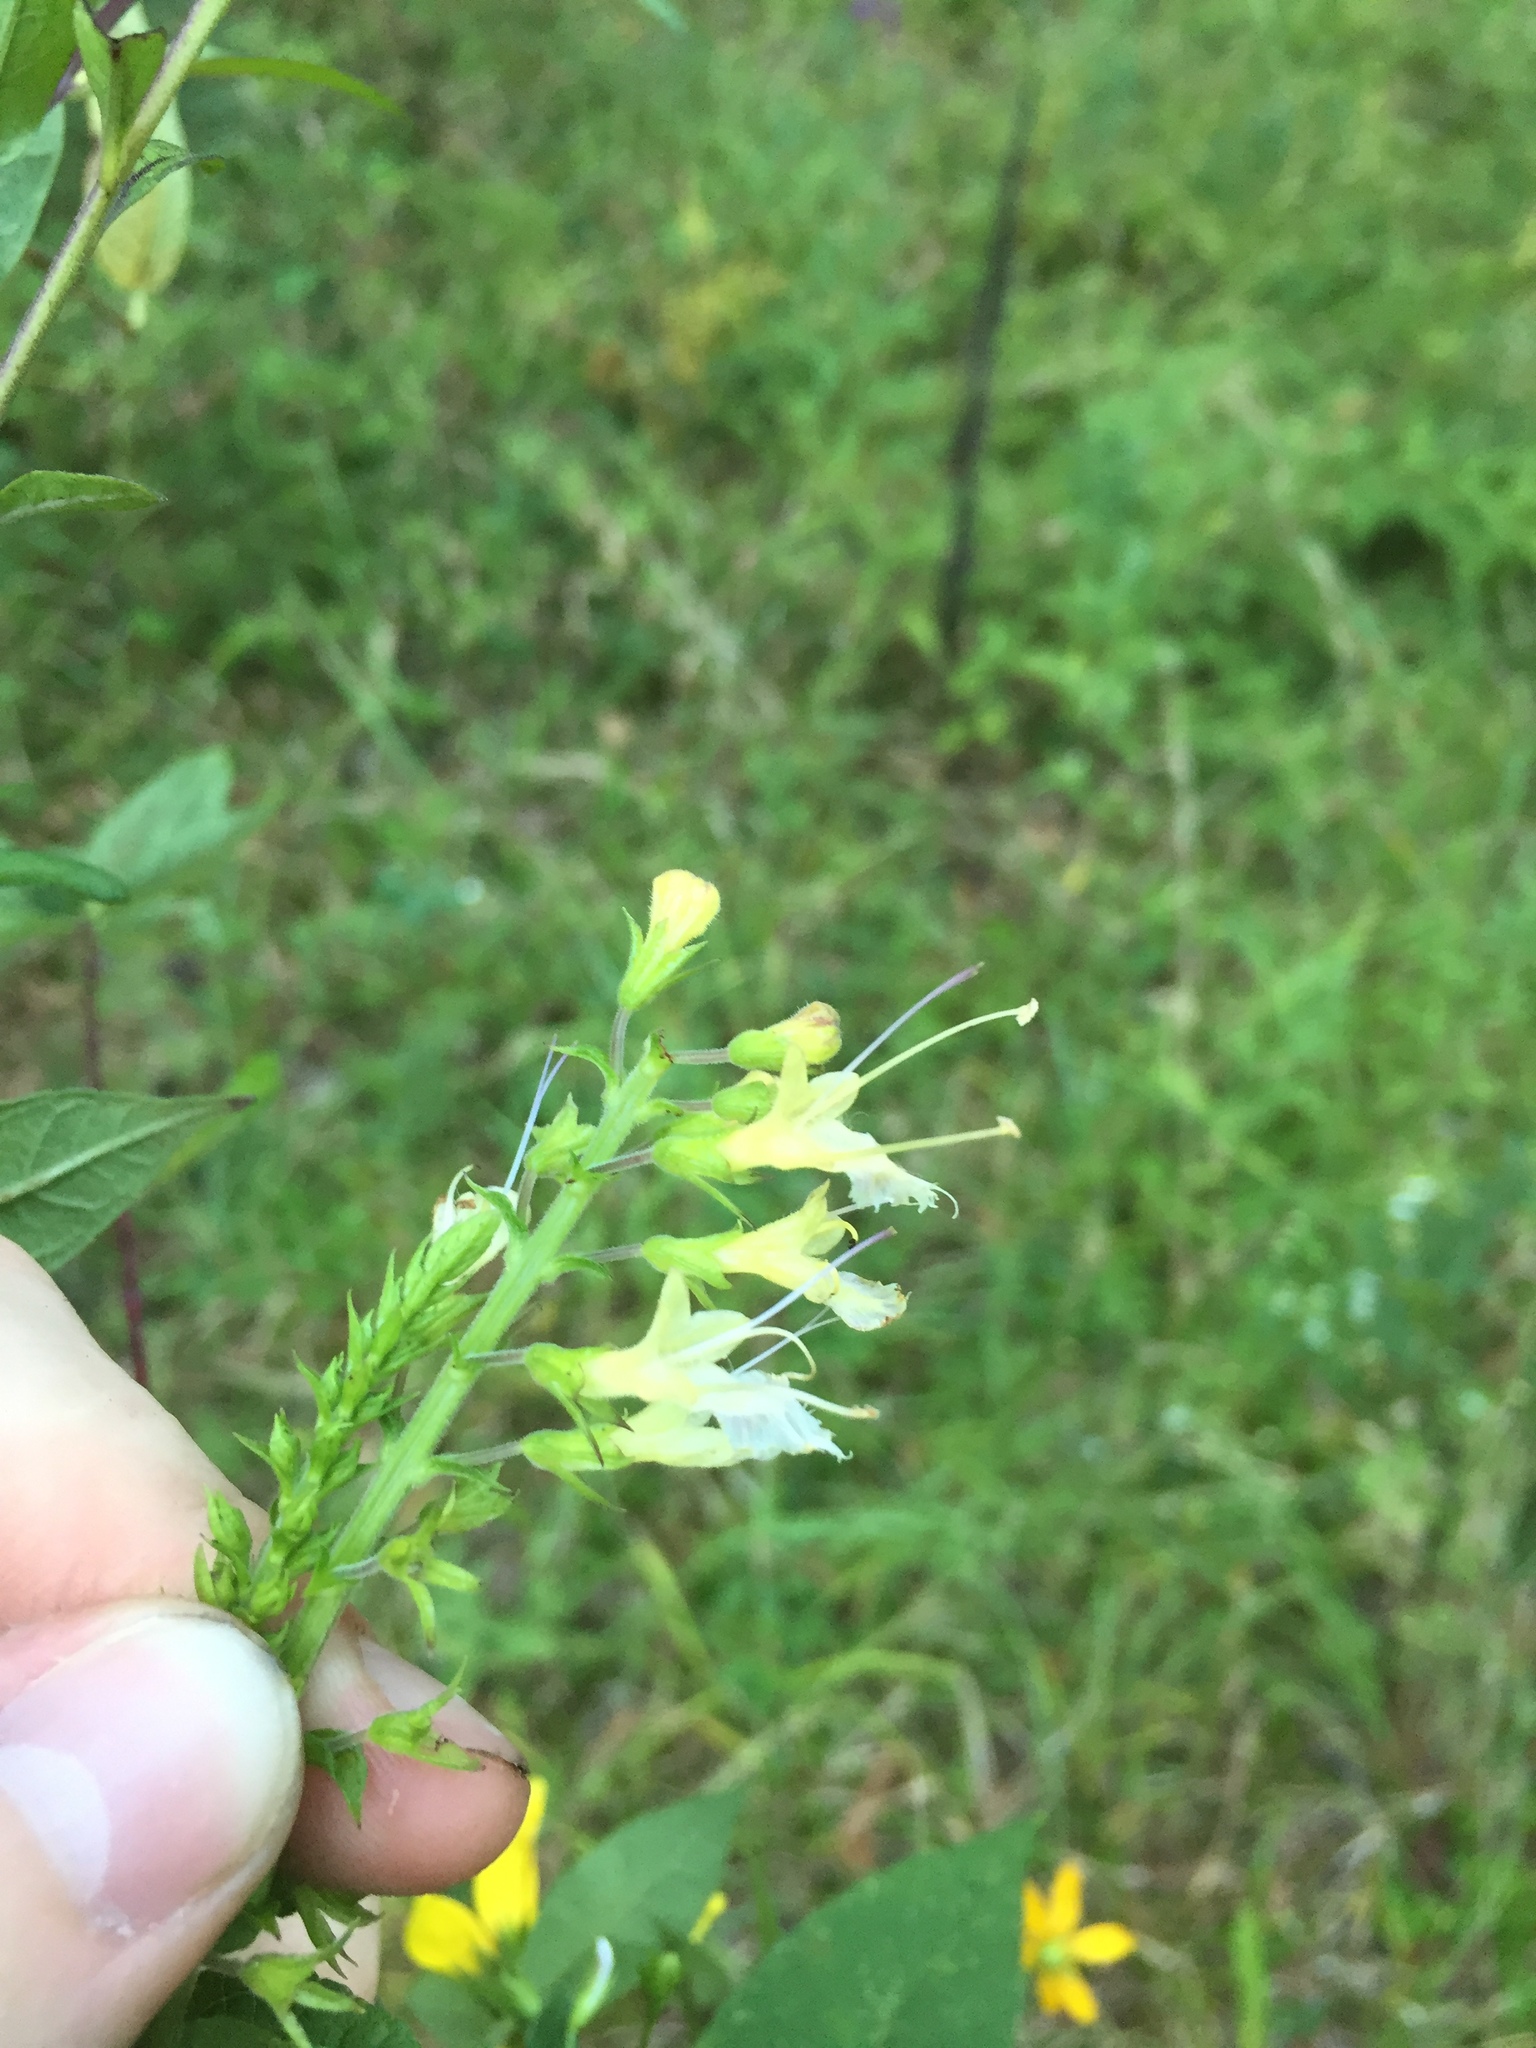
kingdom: Plantae
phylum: Tracheophyta
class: Magnoliopsida
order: Lamiales
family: Lamiaceae
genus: Collinsonia
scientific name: Collinsonia punctata
